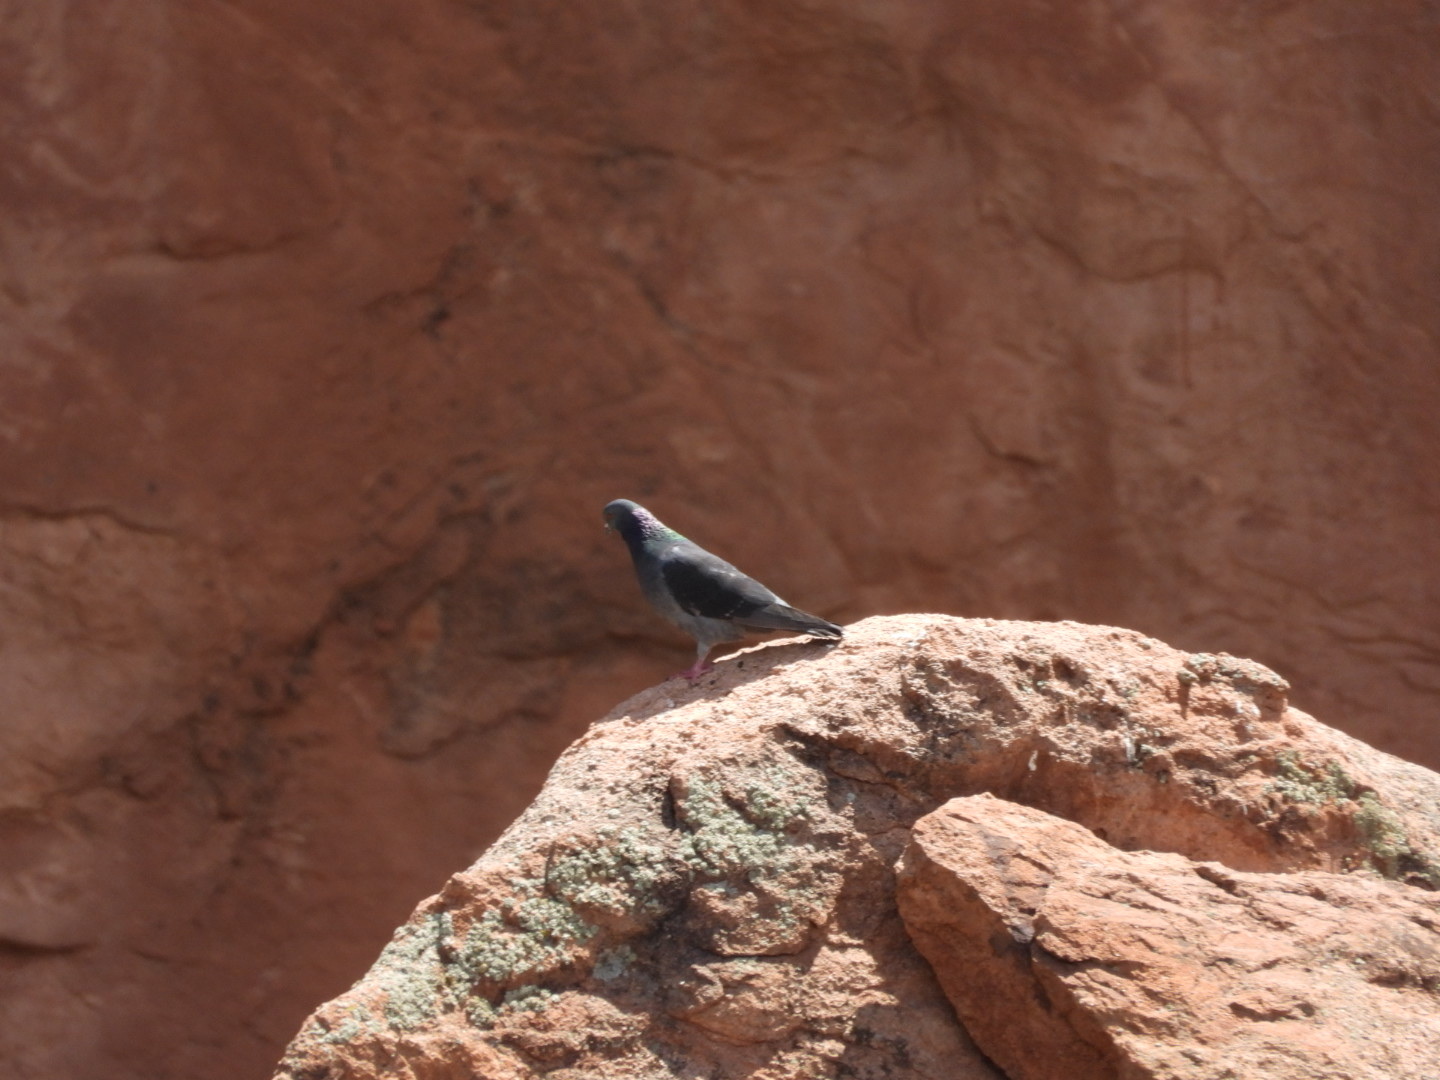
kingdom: Animalia
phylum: Chordata
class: Aves
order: Columbiformes
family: Columbidae
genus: Columba
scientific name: Columba livia
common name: Rock pigeon
